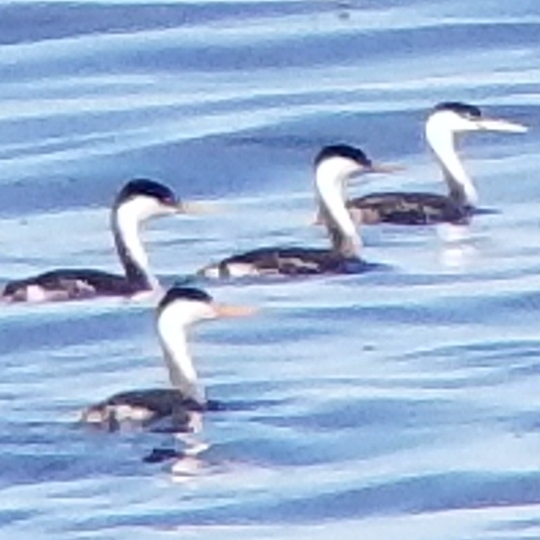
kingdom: Animalia
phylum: Chordata
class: Aves
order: Podicipediformes
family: Podicipedidae
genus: Aechmophorus
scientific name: Aechmophorus clarkii
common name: Clark's grebe
